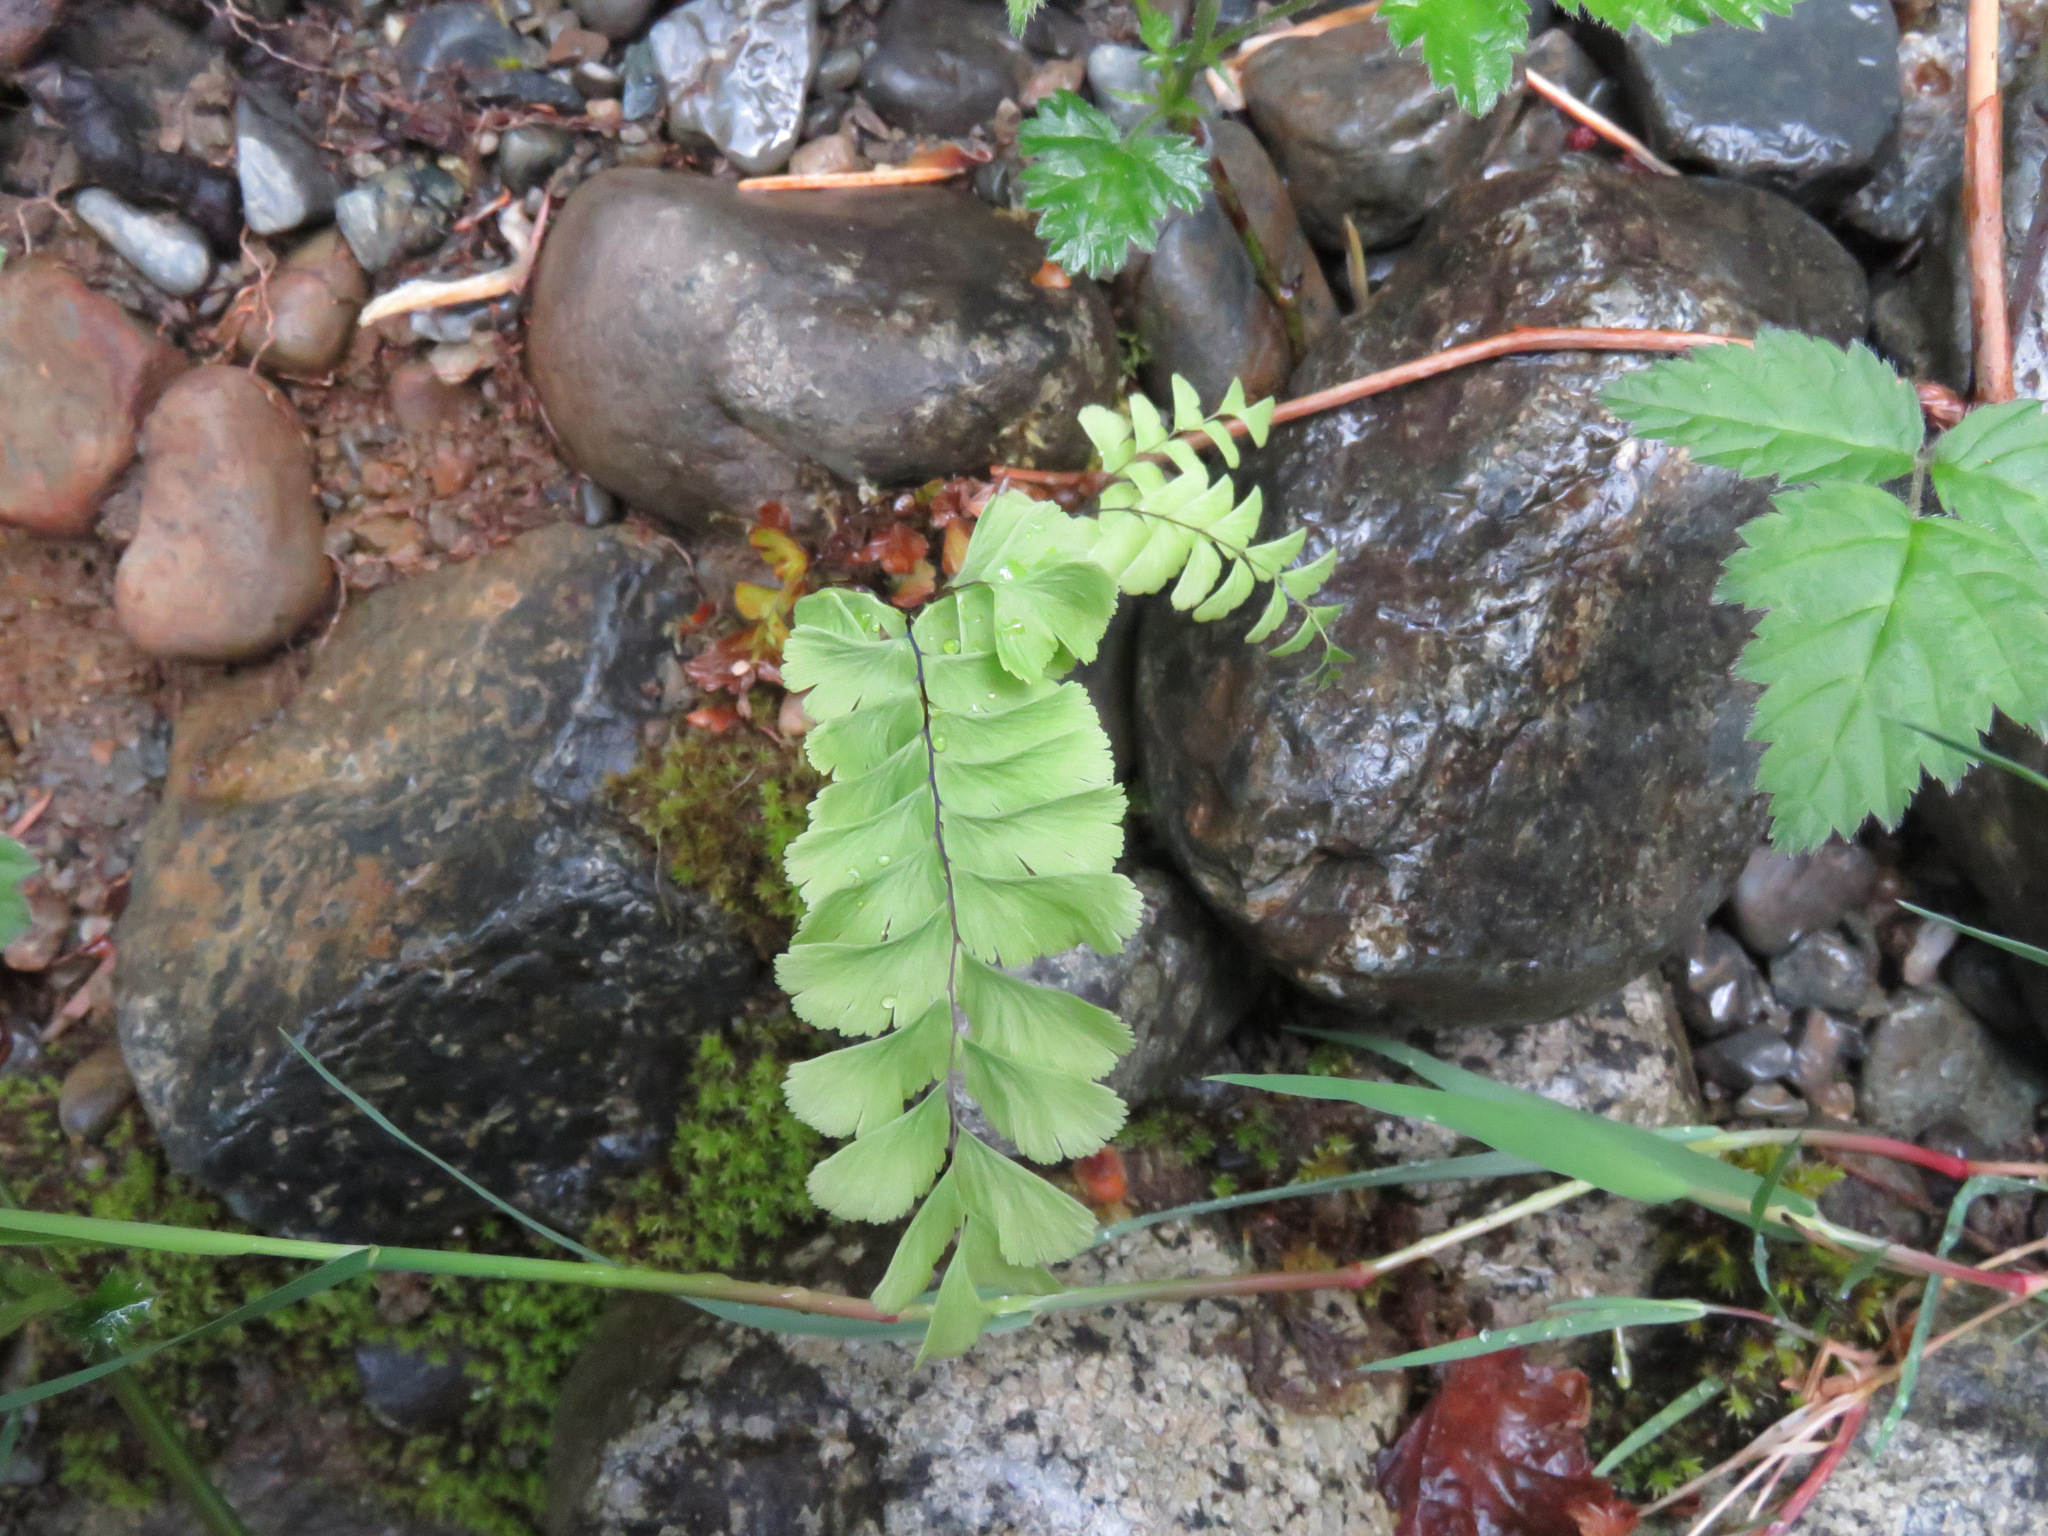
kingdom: Plantae
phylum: Tracheophyta
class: Polypodiopsida
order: Polypodiales
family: Pteridaceae
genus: Adiantum
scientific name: Adiantum aleuticum
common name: Aleutian maidenhair fern
